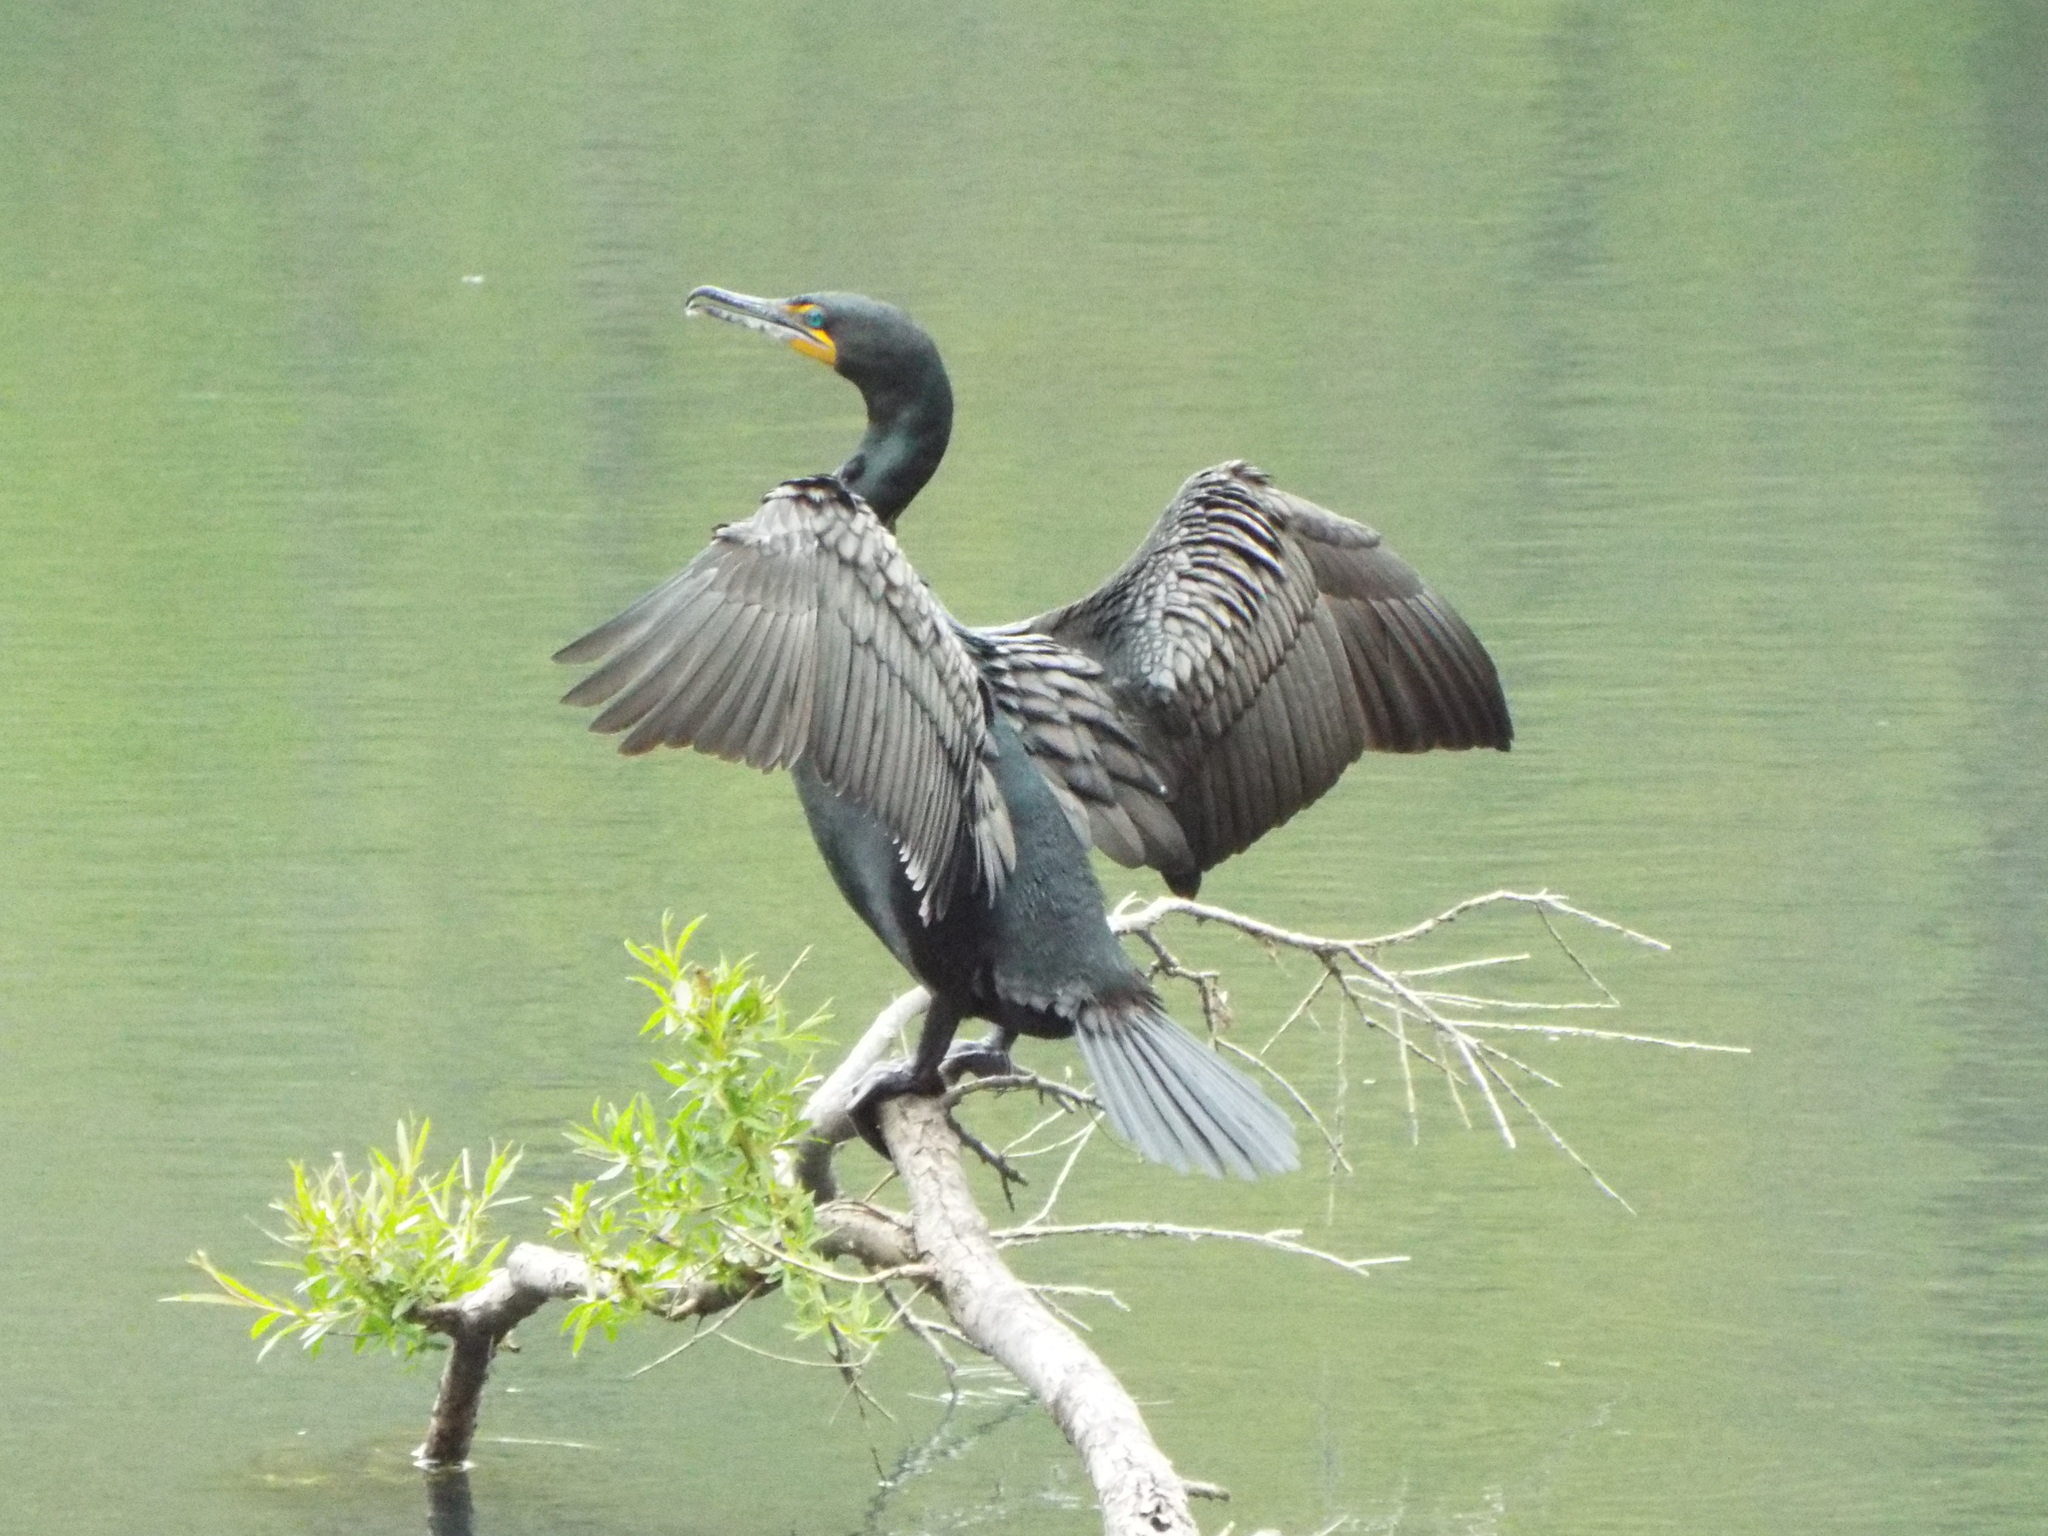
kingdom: Animalia
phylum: Chordata
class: Aves
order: Suliformes
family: Phalacrocoracidae
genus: Phalacrocorax
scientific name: Phalacrocorax auritus
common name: Double-crested cormorant
